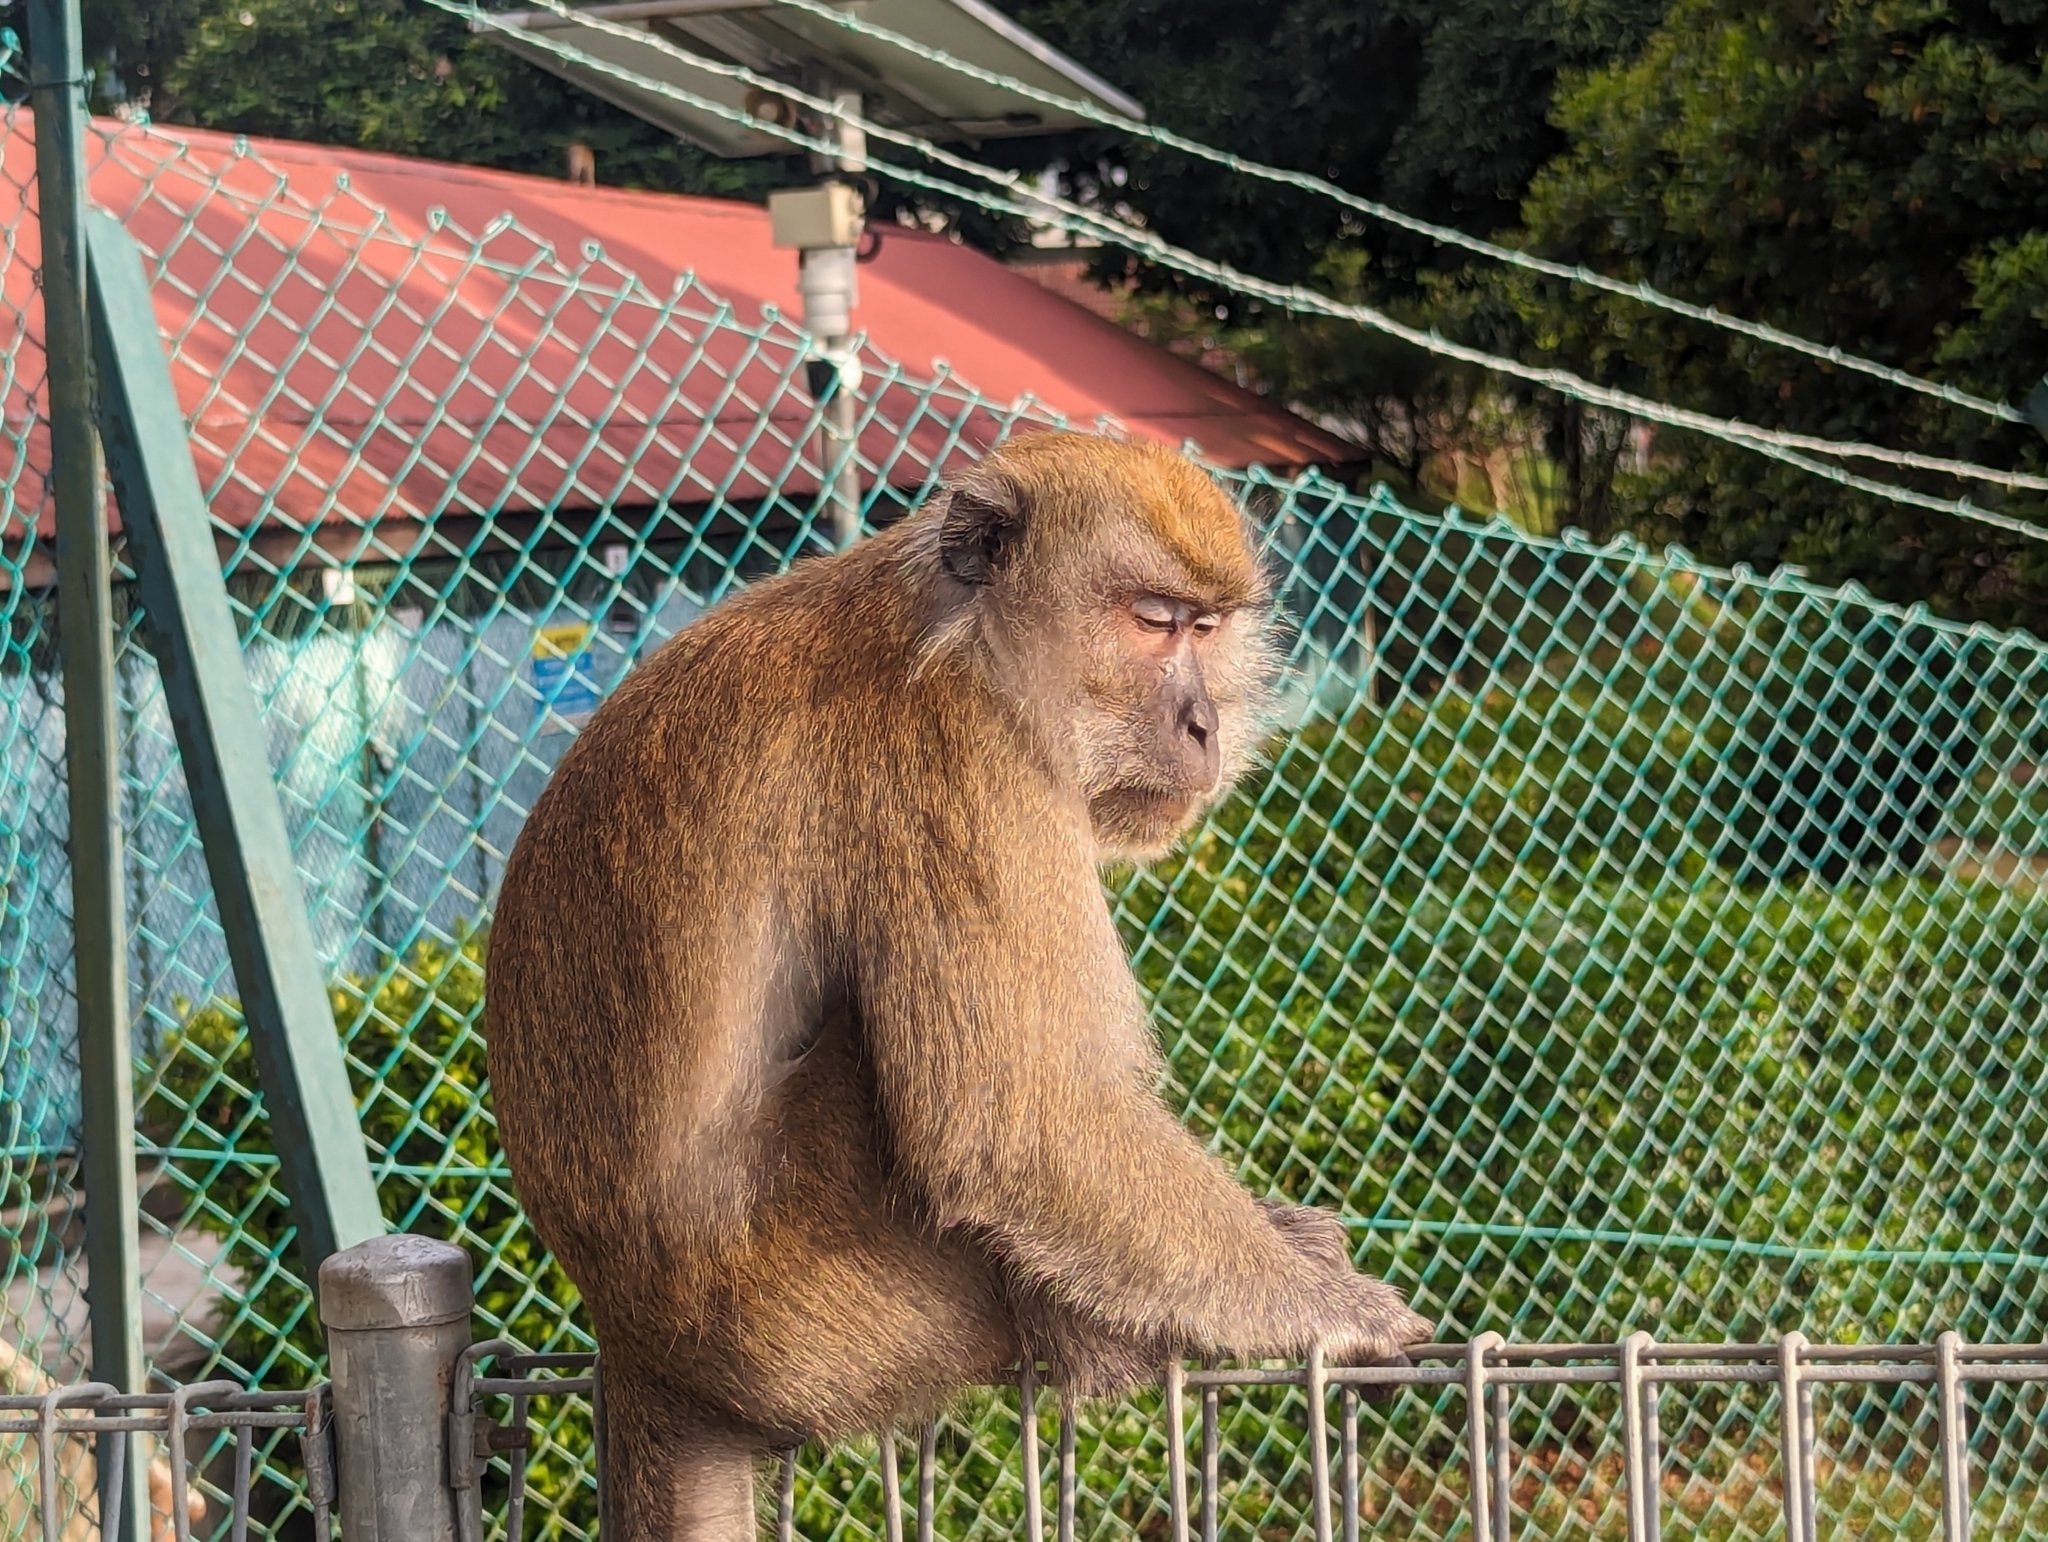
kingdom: Animalia
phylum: Chordata
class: Mammalia
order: Primates
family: Cercopithecidae
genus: Macaca
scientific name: Macaca fascicularis
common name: Crab-eating macaque
